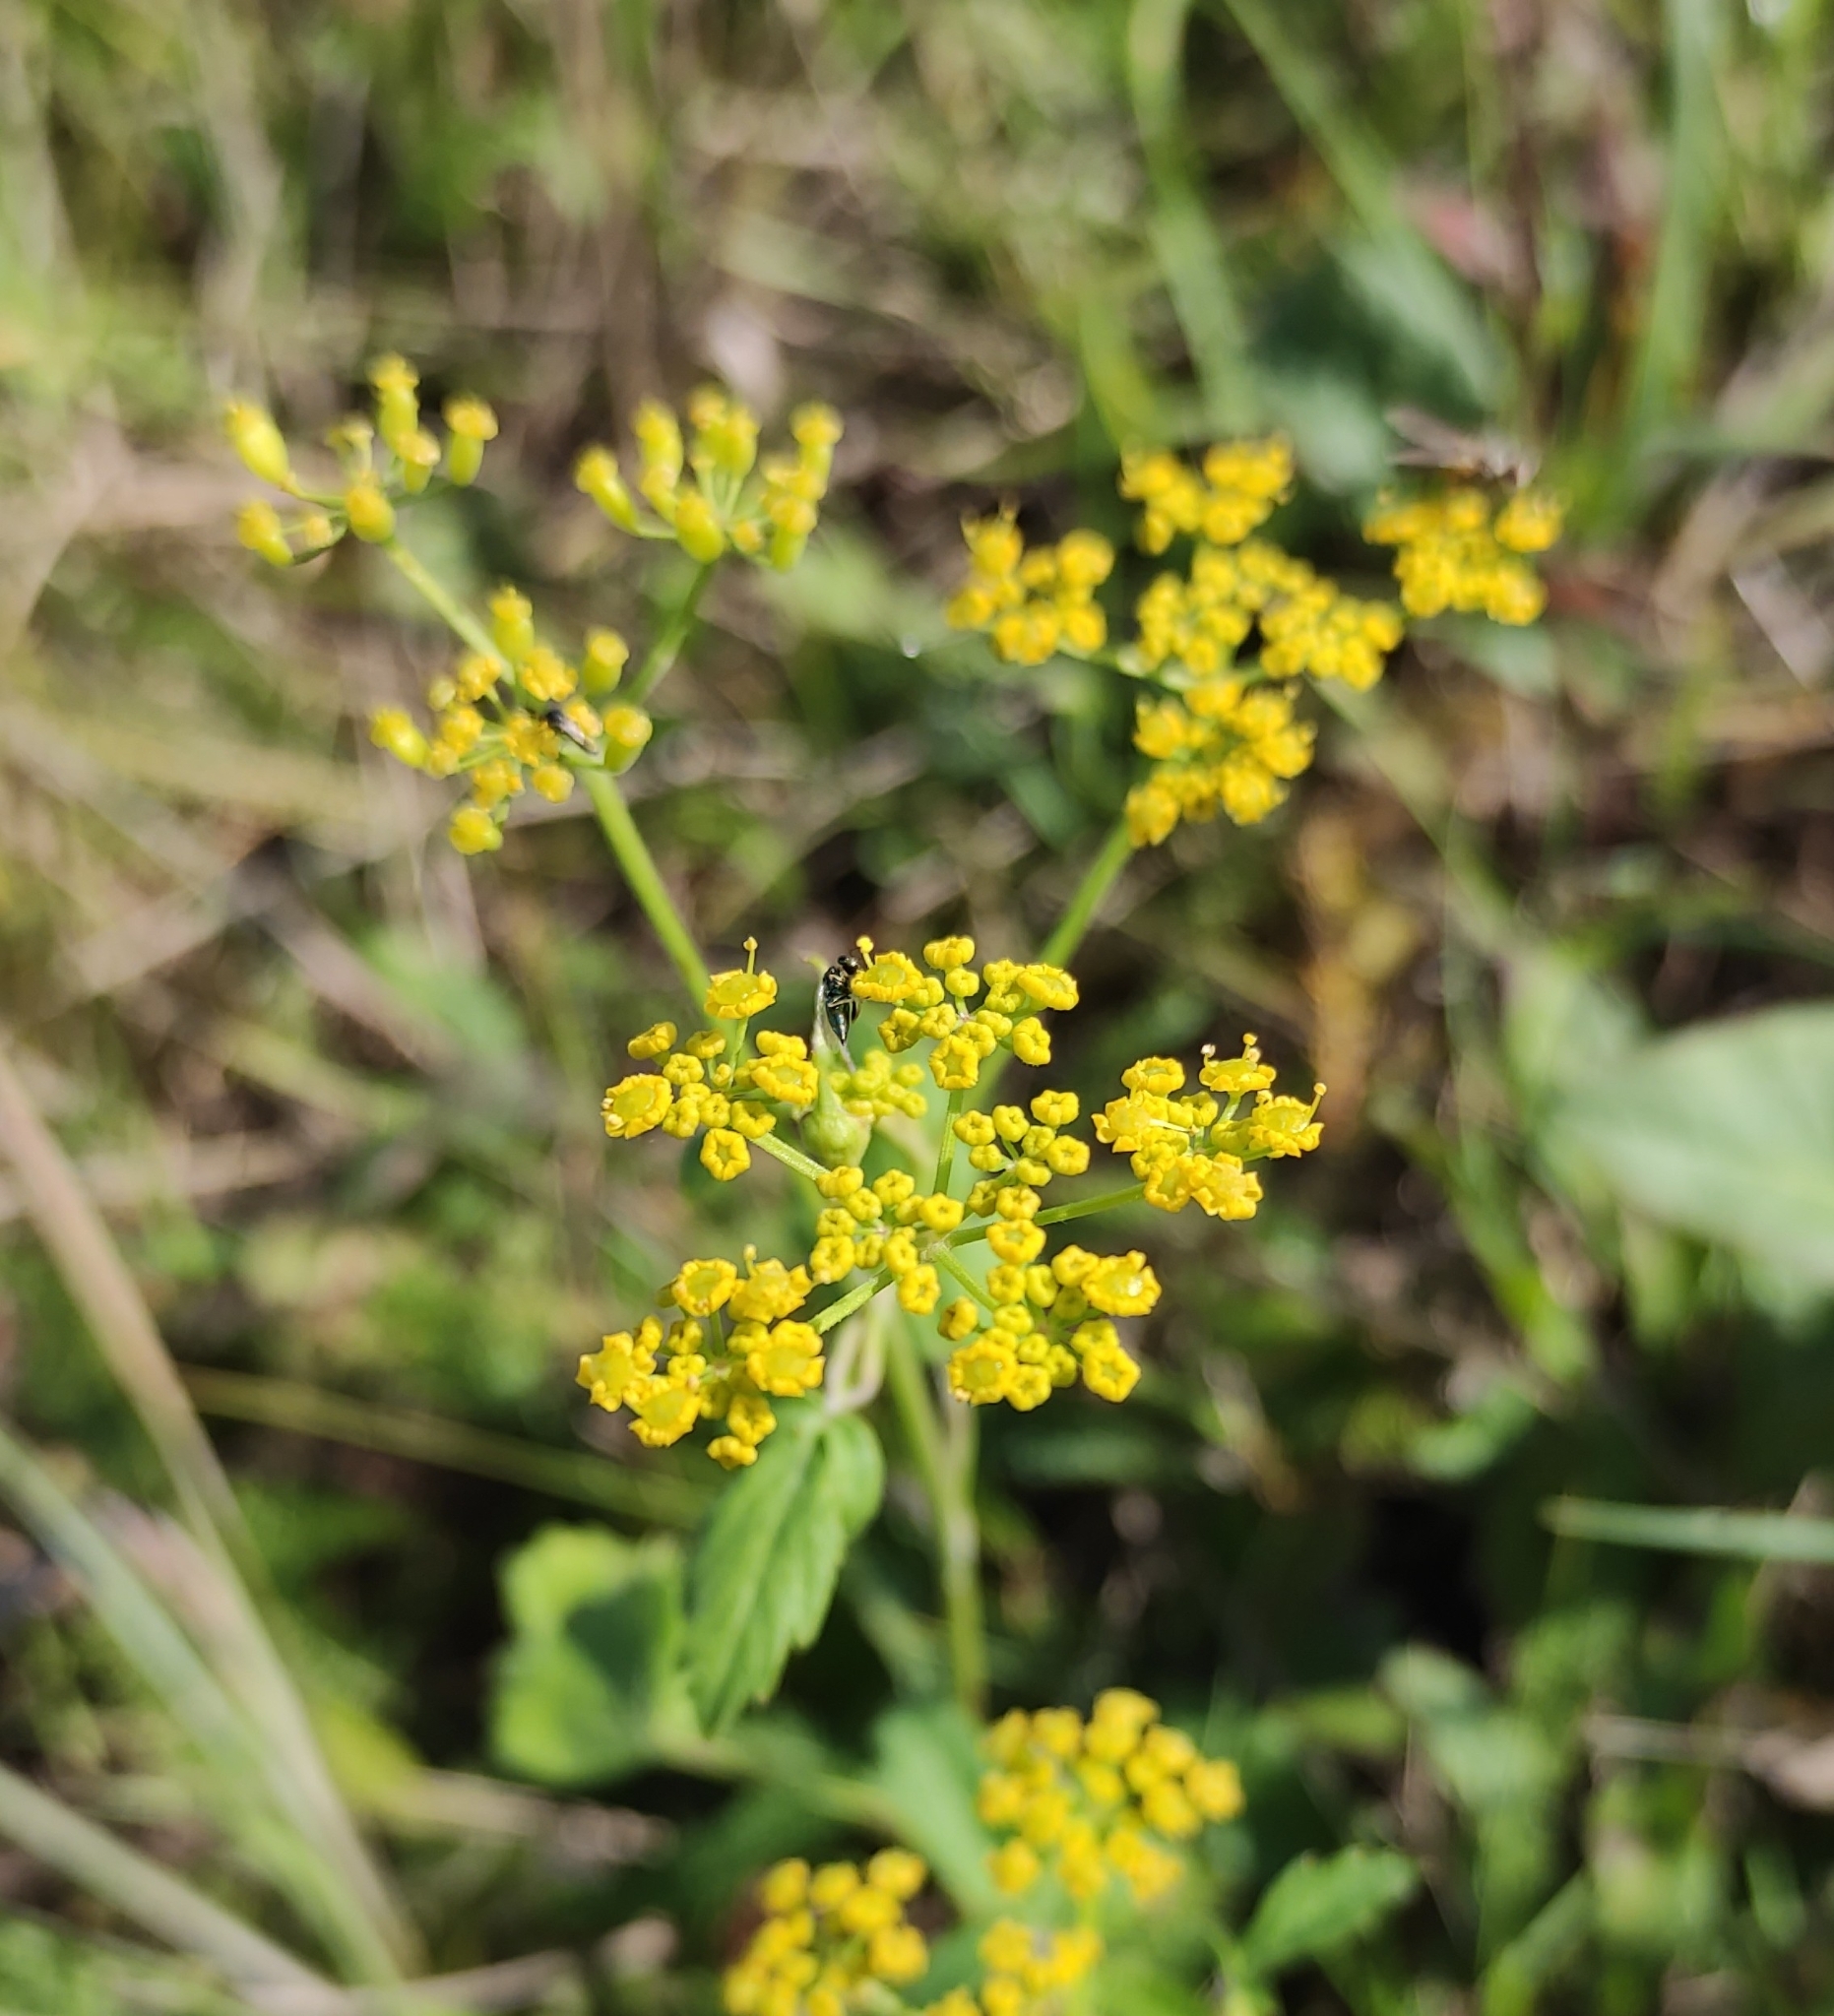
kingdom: Plantae
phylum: Tracheophyta
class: Magnoliopsida
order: Apiales
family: Apiaceae
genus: Pastinaca
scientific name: Pastinaca sativa
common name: Wild parsnip
